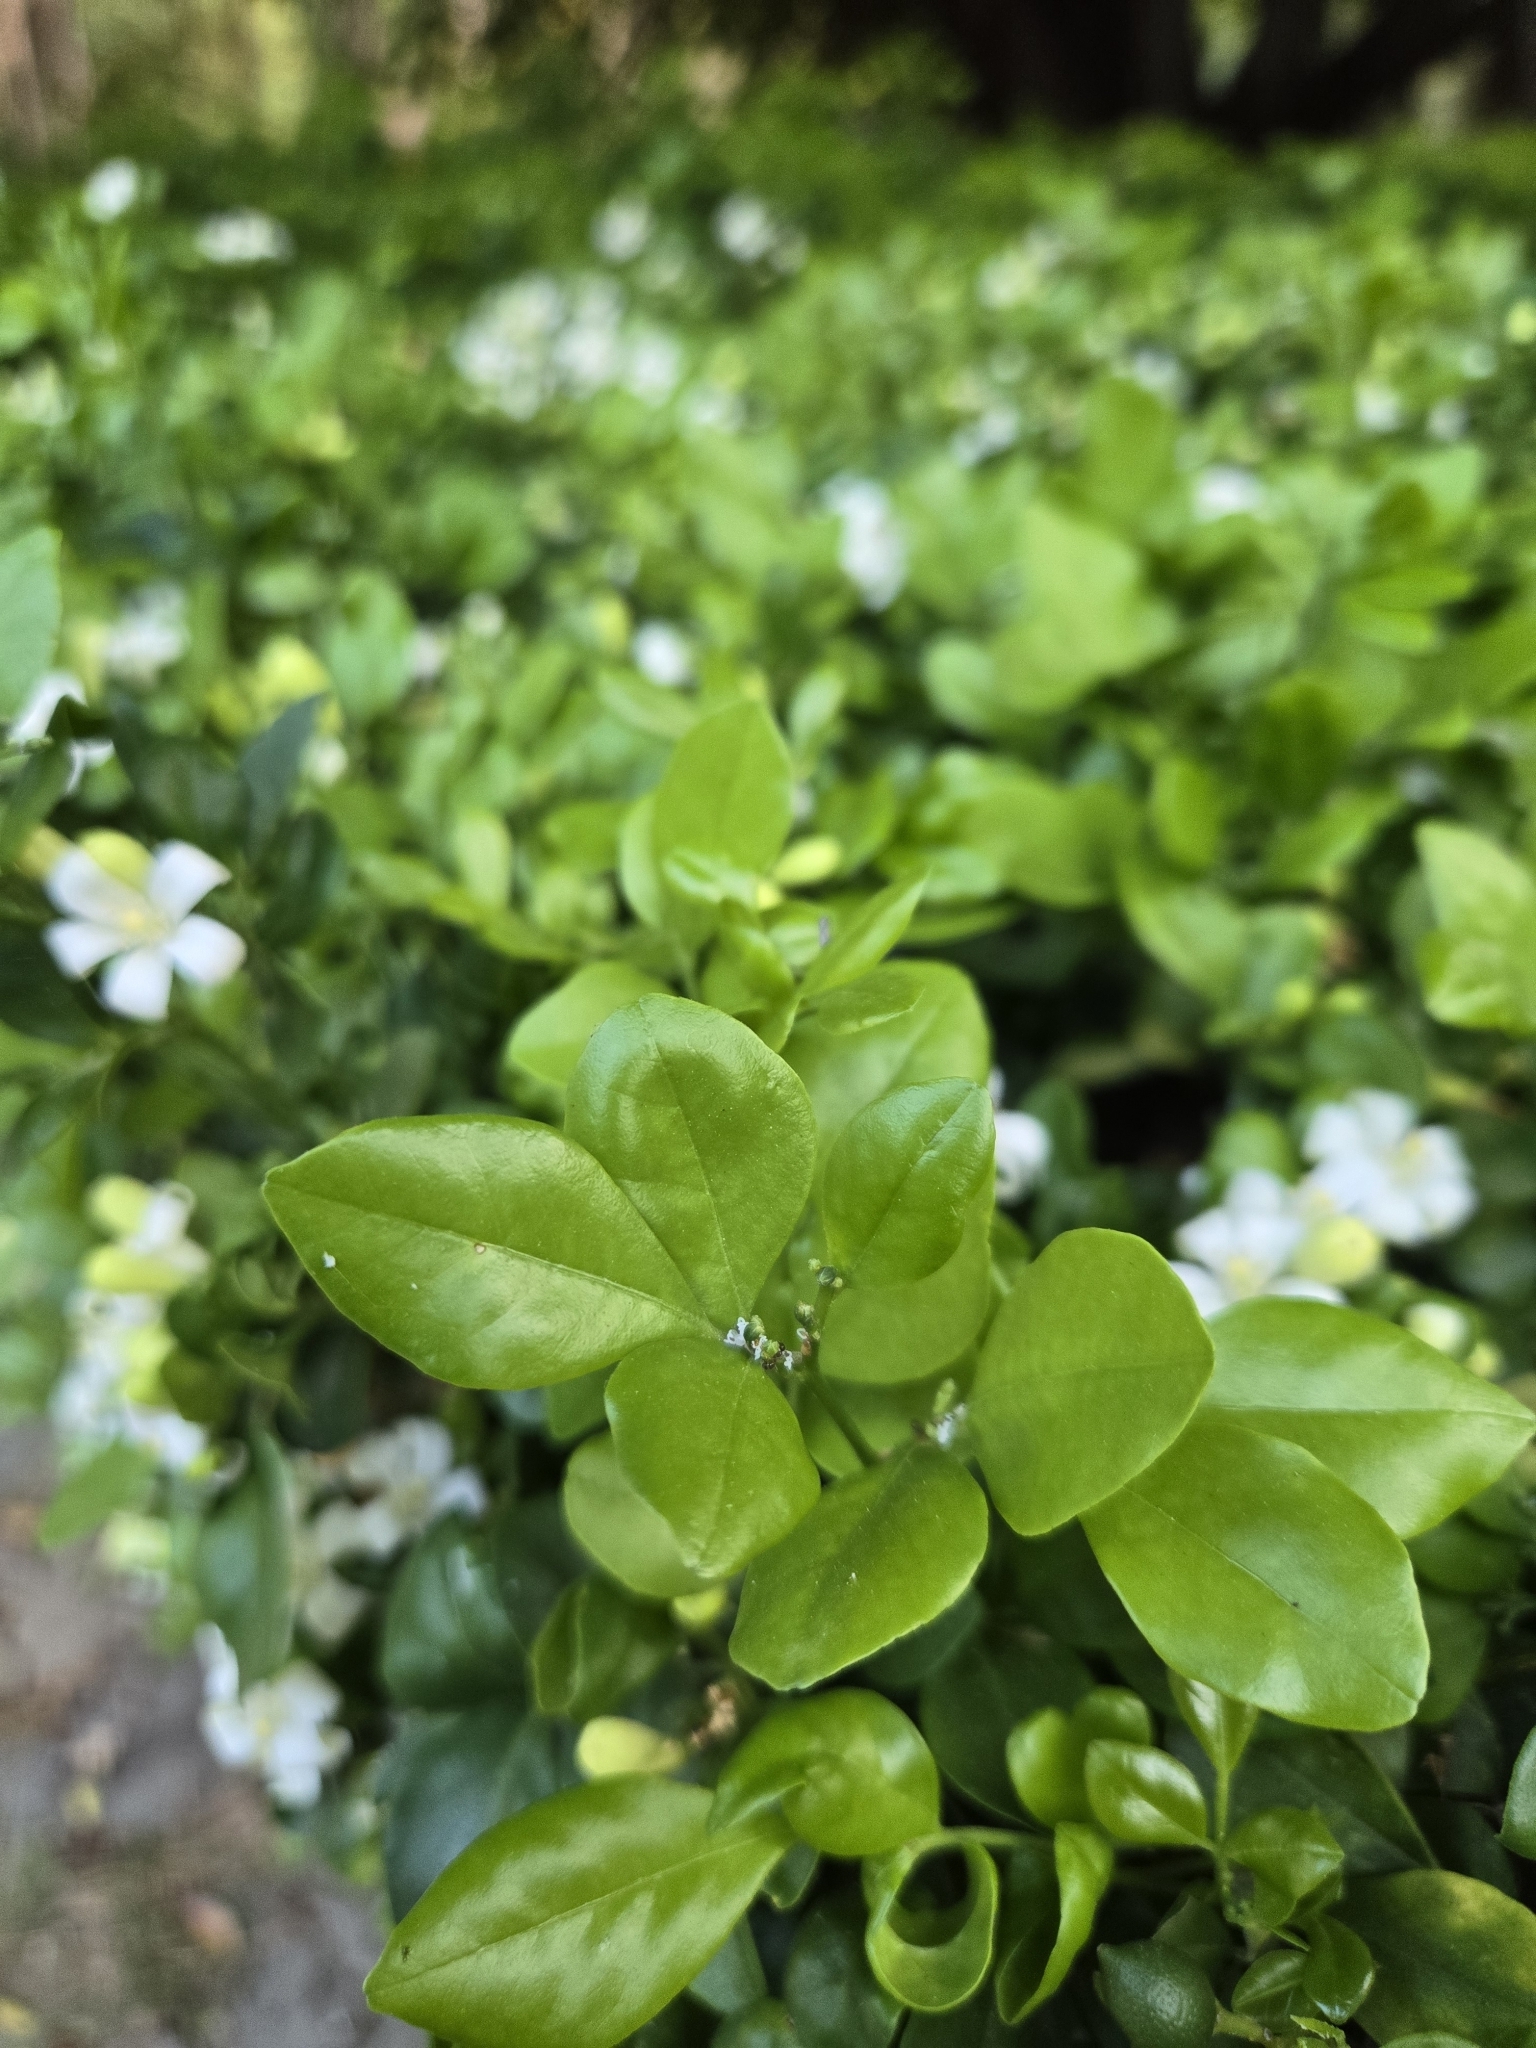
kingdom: Plantae
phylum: Tracheophyta
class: Magnoliopsida
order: Sapindales
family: Rutaceae
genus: Murraya
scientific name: Murraya paniculata
